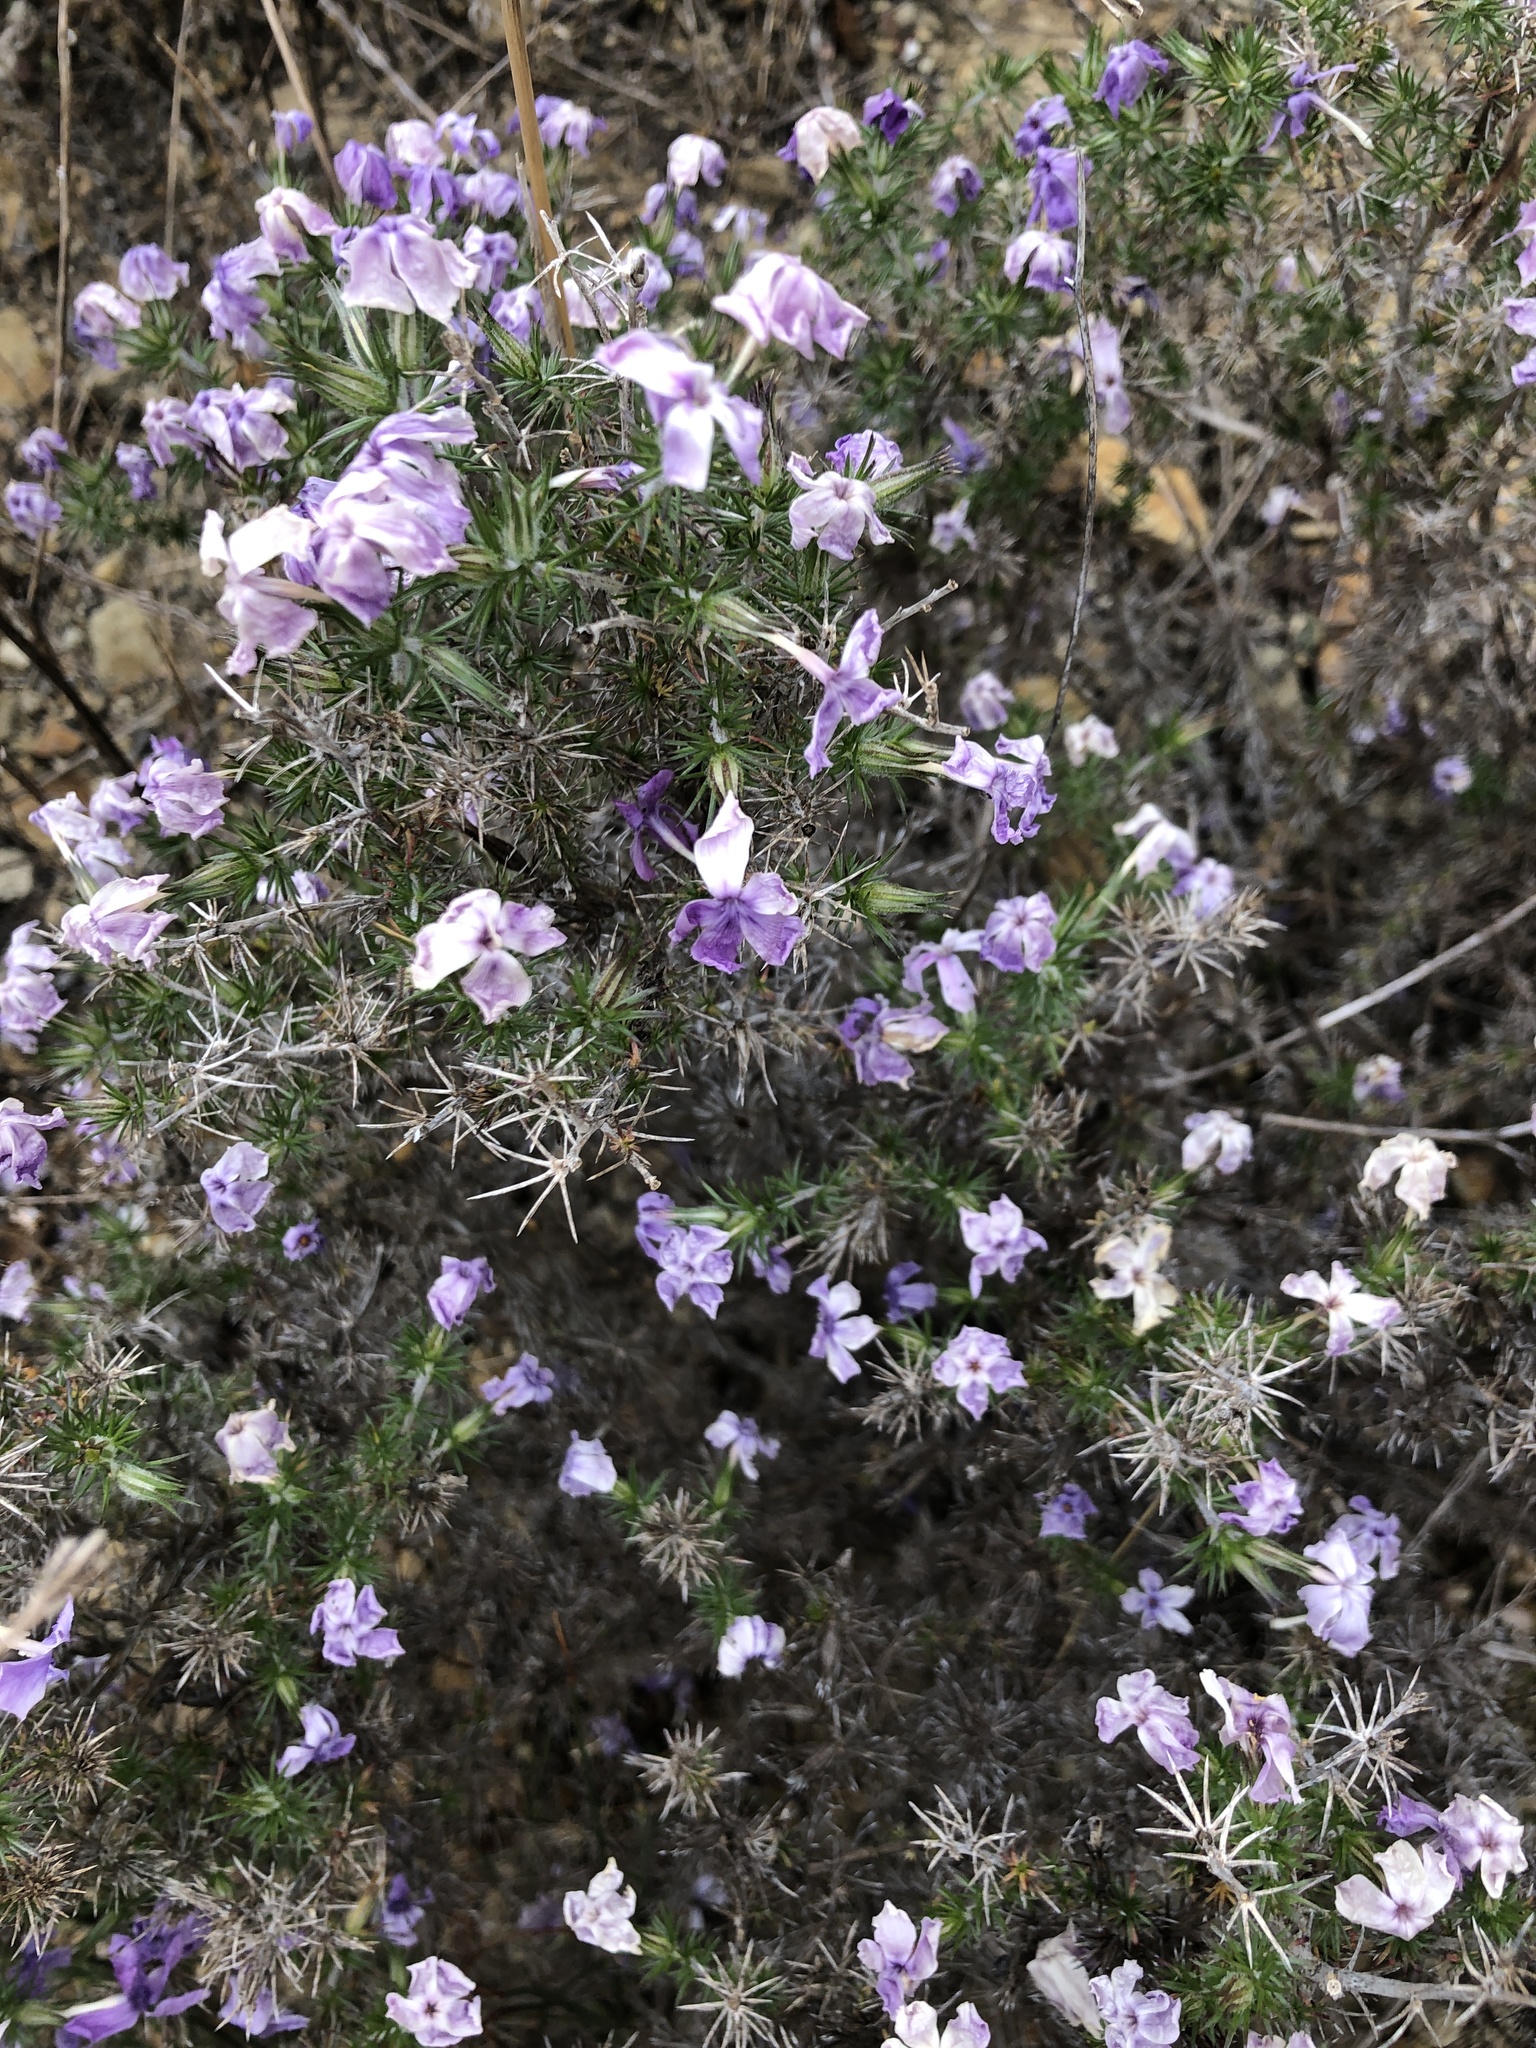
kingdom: Plantae
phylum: Tracheophyta
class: Magnoliopsida
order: Ericales
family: Polemoniaceae
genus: Linanthus
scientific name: Linanthus californicus
